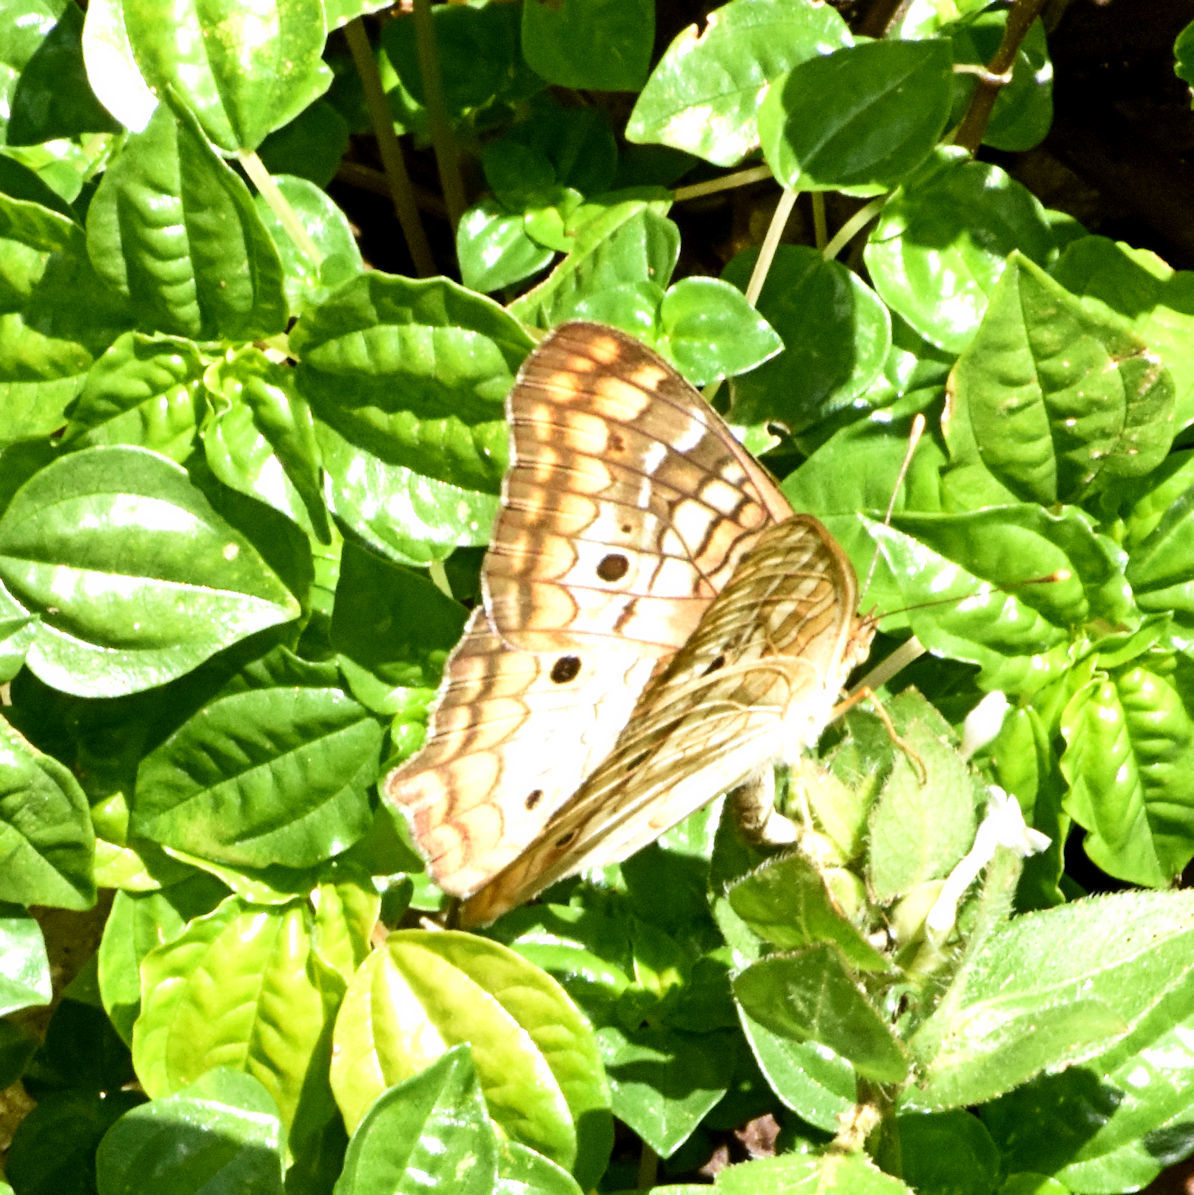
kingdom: Animalia
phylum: Arthropoda
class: Insecta
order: Lepidoptera
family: Nymphalidae
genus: Anartia
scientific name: Anartia jatrophae
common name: White peacock
